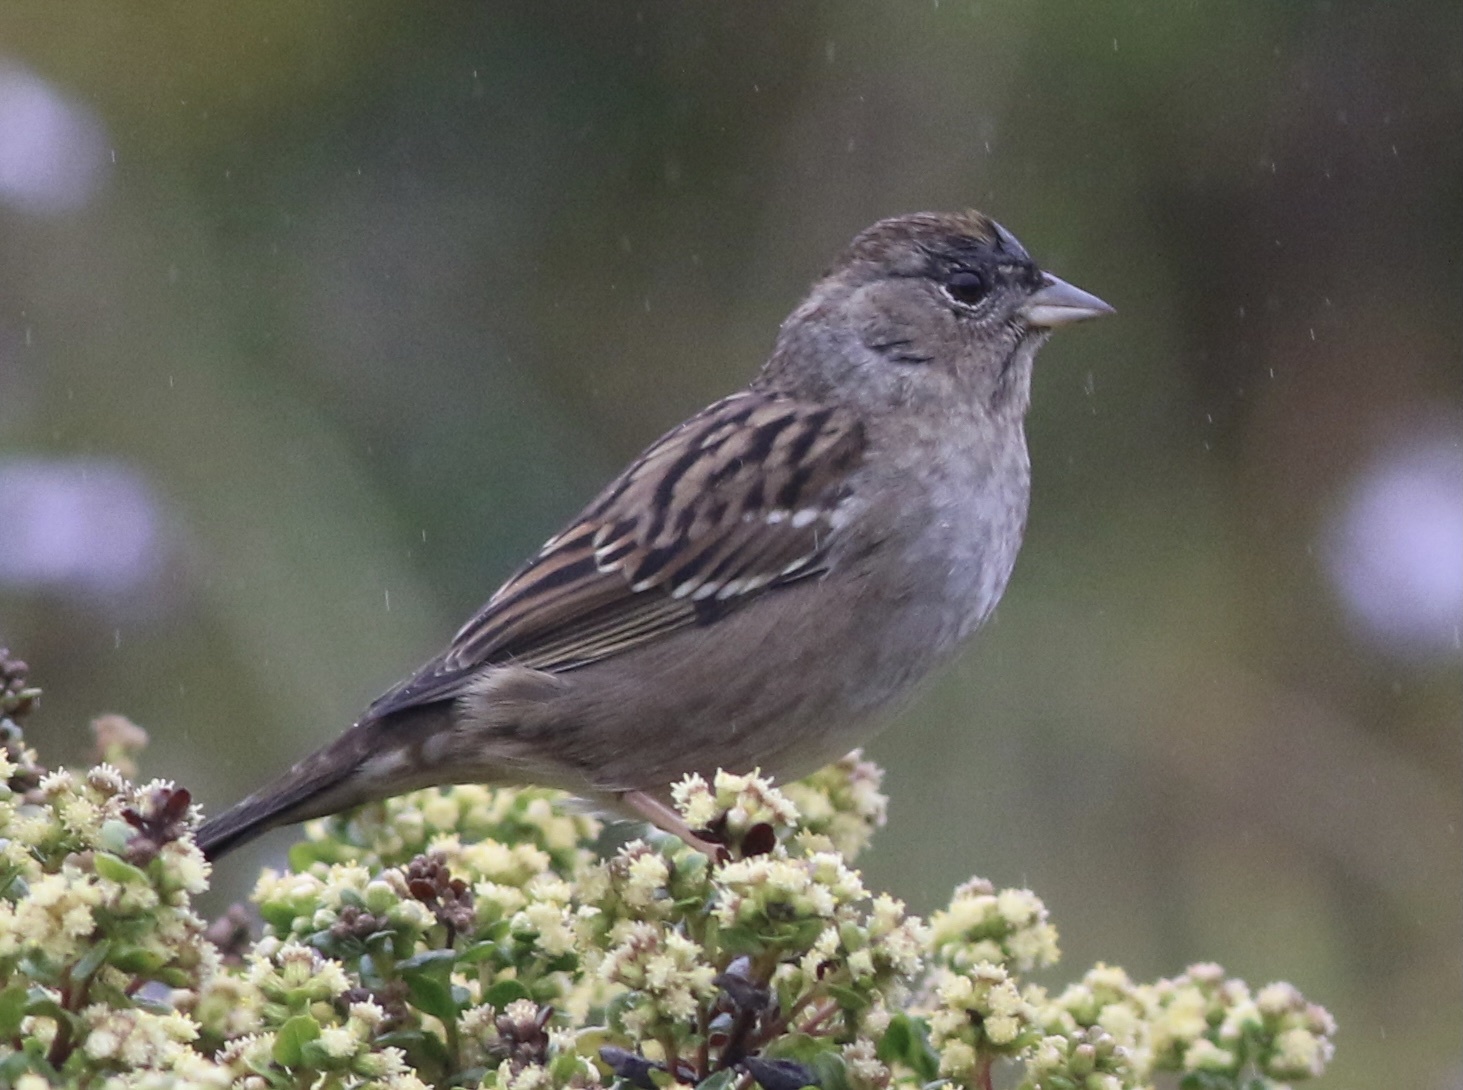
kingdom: Animalia
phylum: Chordata
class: Aves
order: Passeriformes
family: Passerellidae
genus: Zonotrichia
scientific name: Zonotrichia atricapilla
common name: Golden-crowned sparrow
